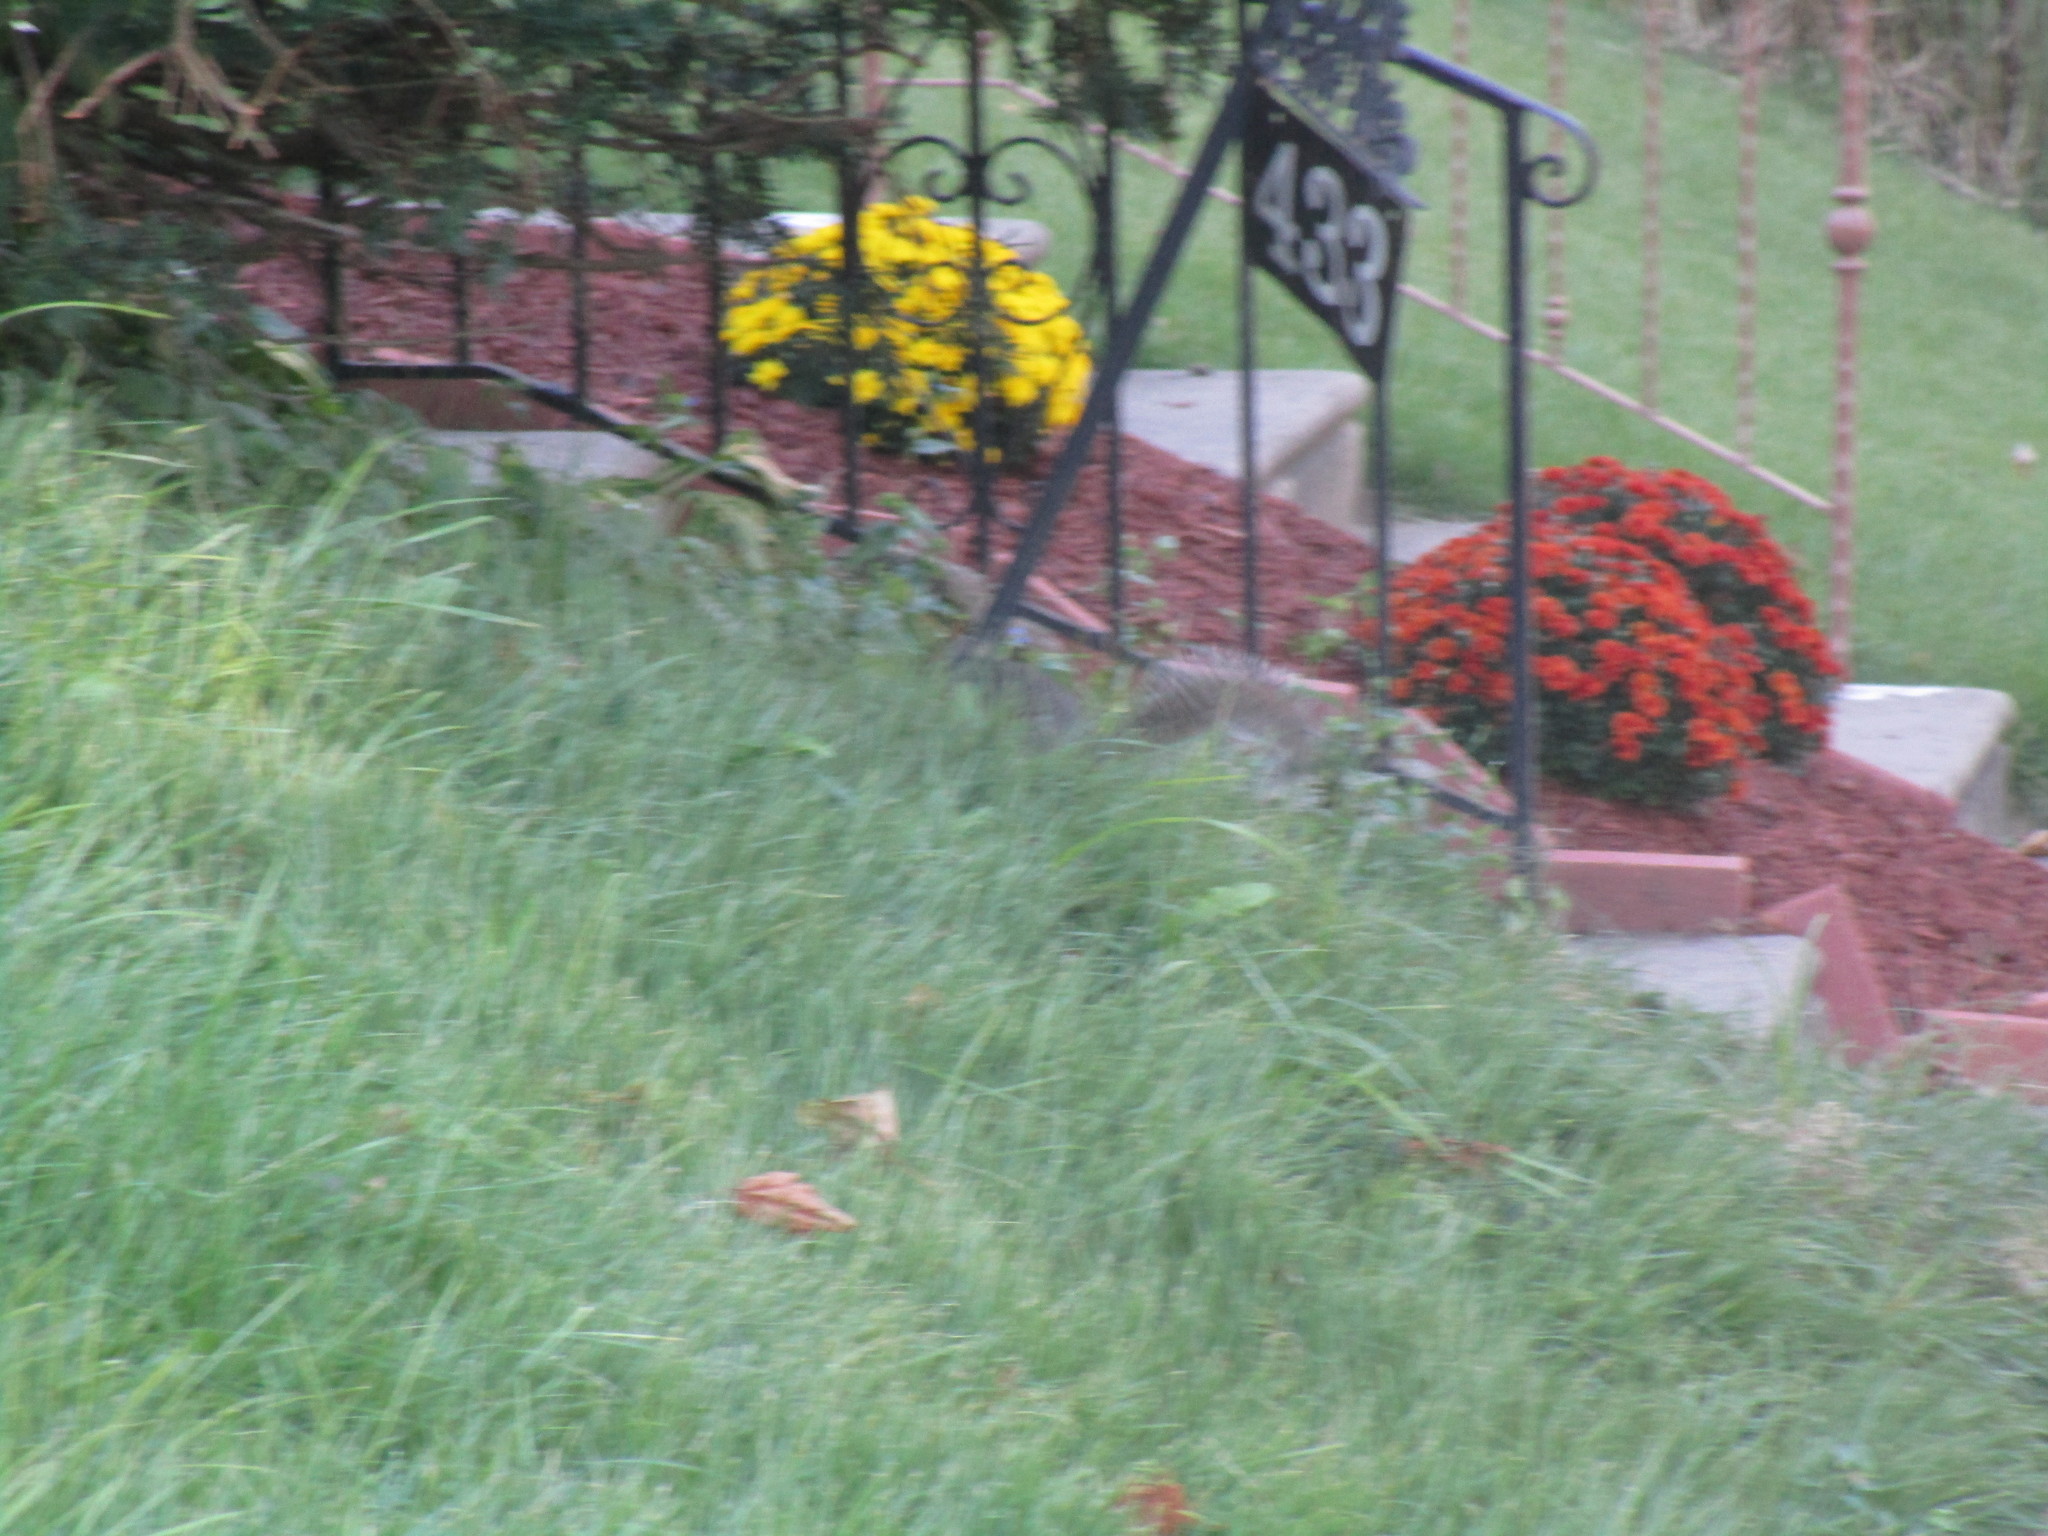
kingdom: Animalia
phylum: Chordata
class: Mammalia
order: Rodentia
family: Sciuridae
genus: Sciurus
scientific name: Sciurus carolinensis
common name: Eastern gray squirrel
